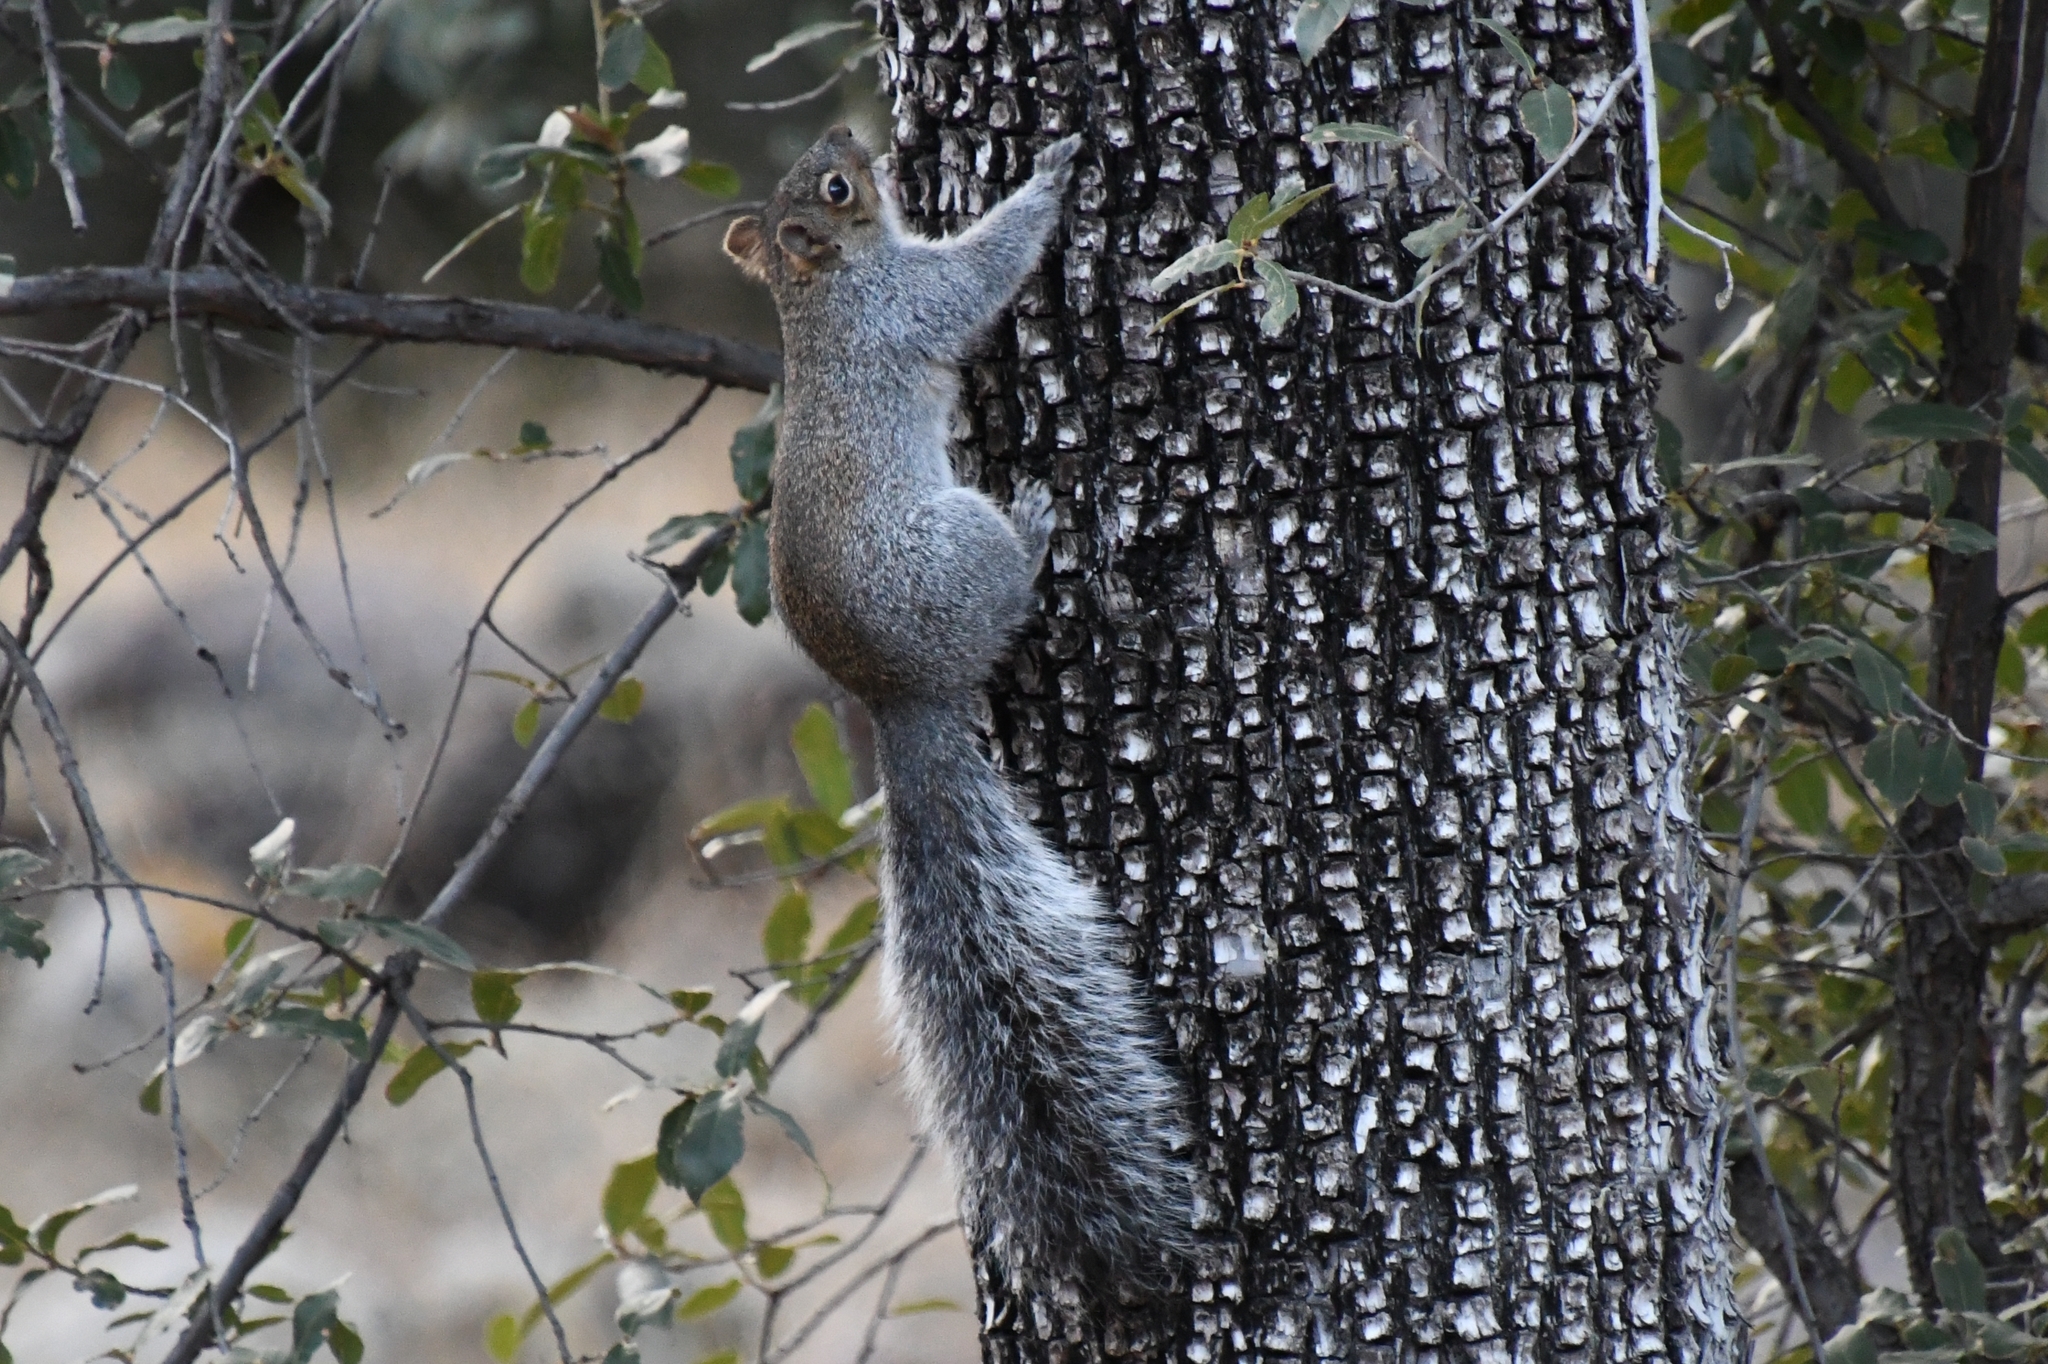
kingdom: Animalia
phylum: Chordata
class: Mammalia
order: Rodentia
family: Sciuridae
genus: Sciurus
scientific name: Sciurus arizonensis
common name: Arizona gray squirrel
